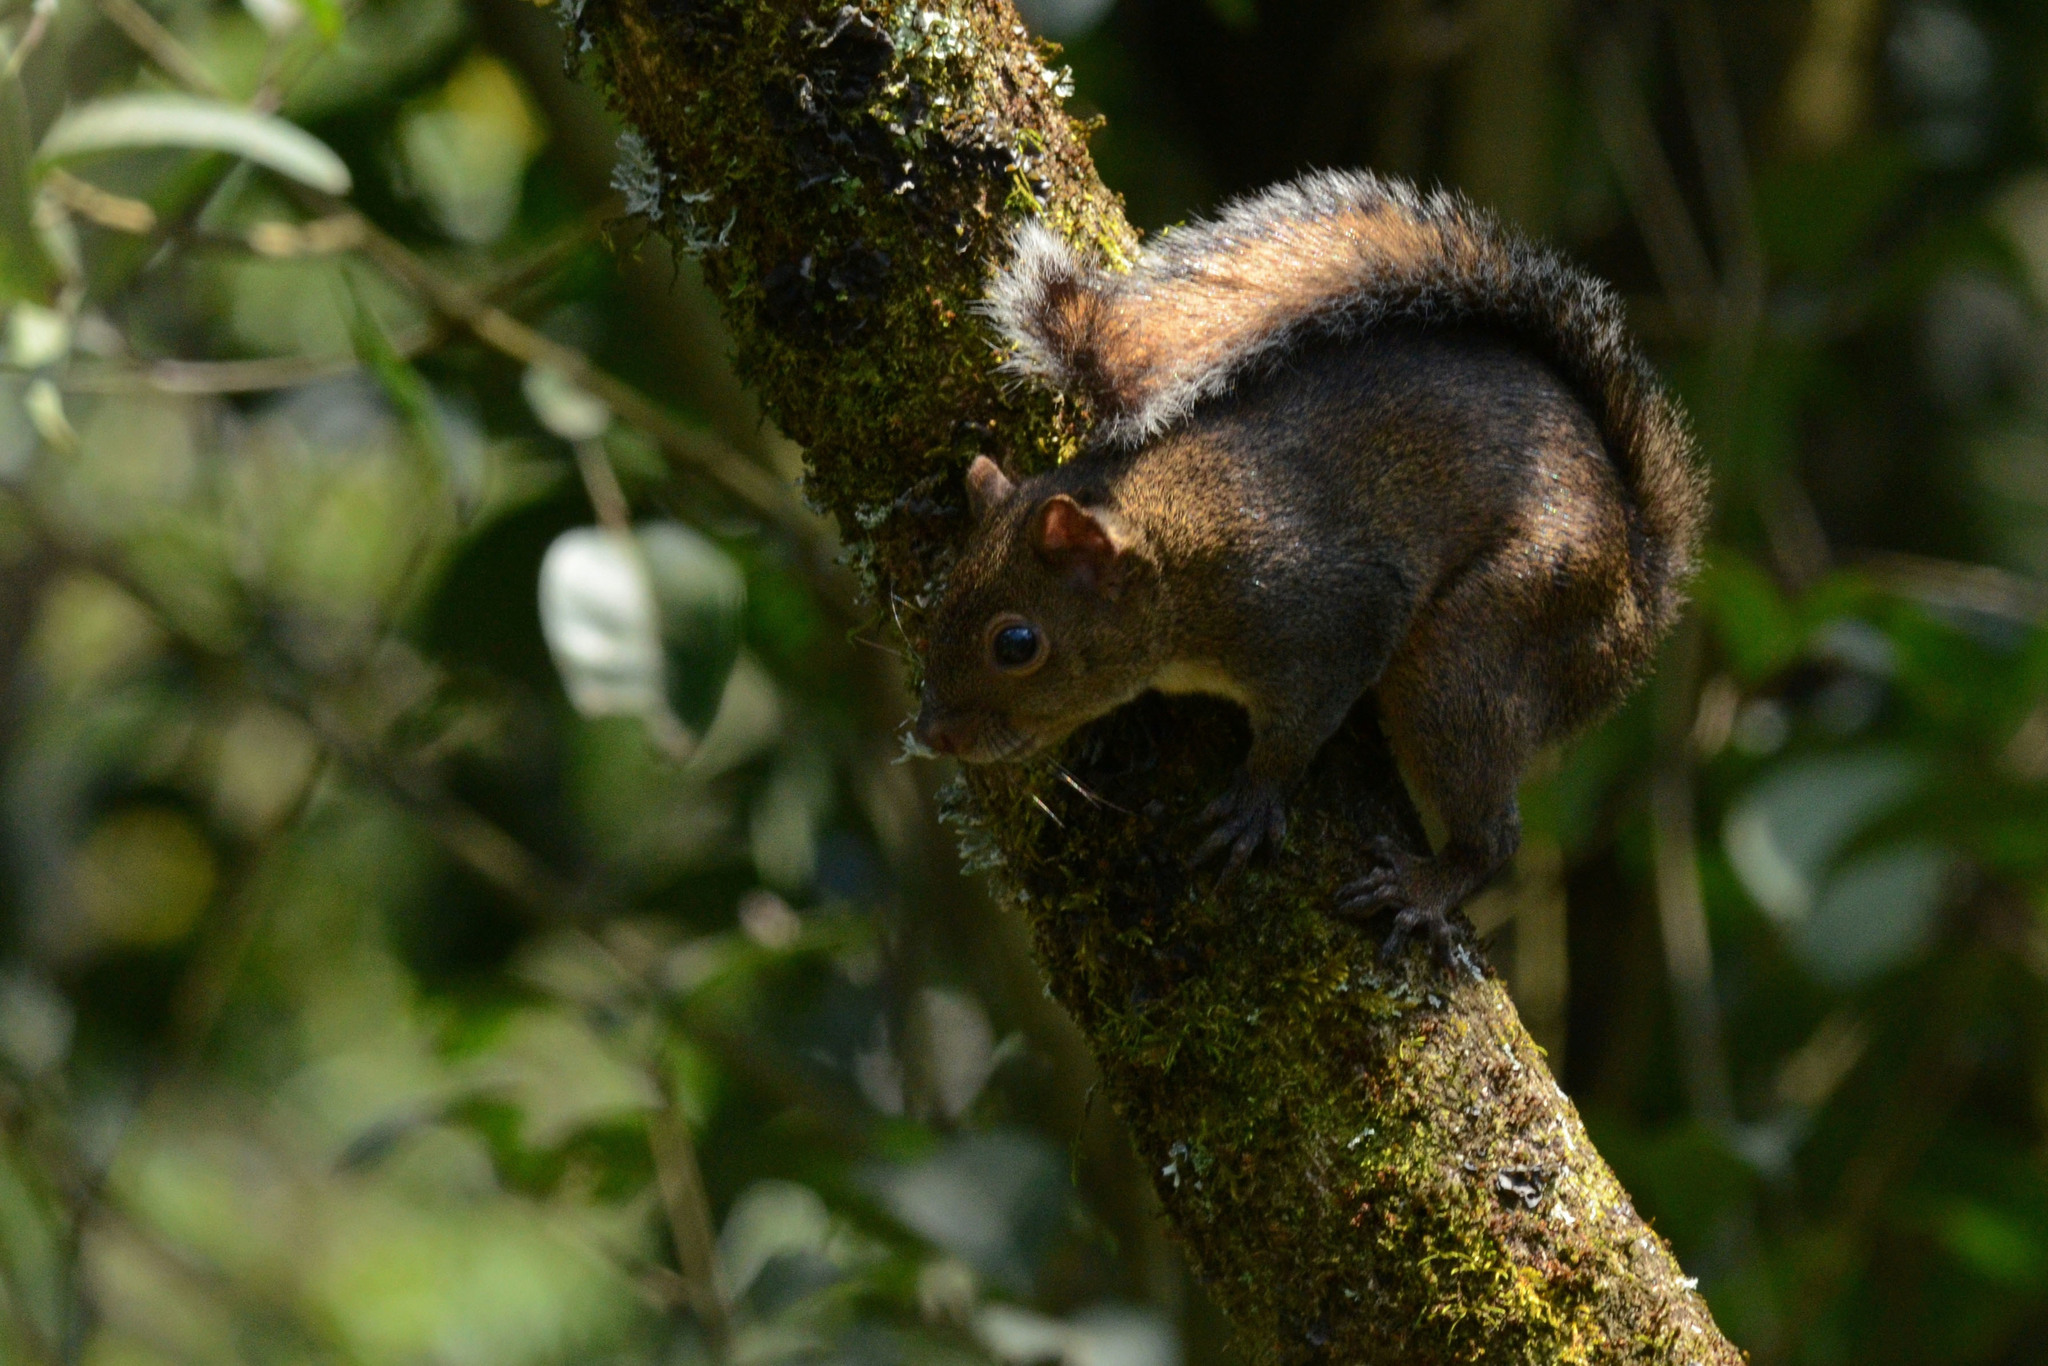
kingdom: Animalia
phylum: Chordata
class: Mammalia
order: Rodentia
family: Sciuridae
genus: Sciurus
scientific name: Sciurus deppei
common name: Deppe's squirrel
